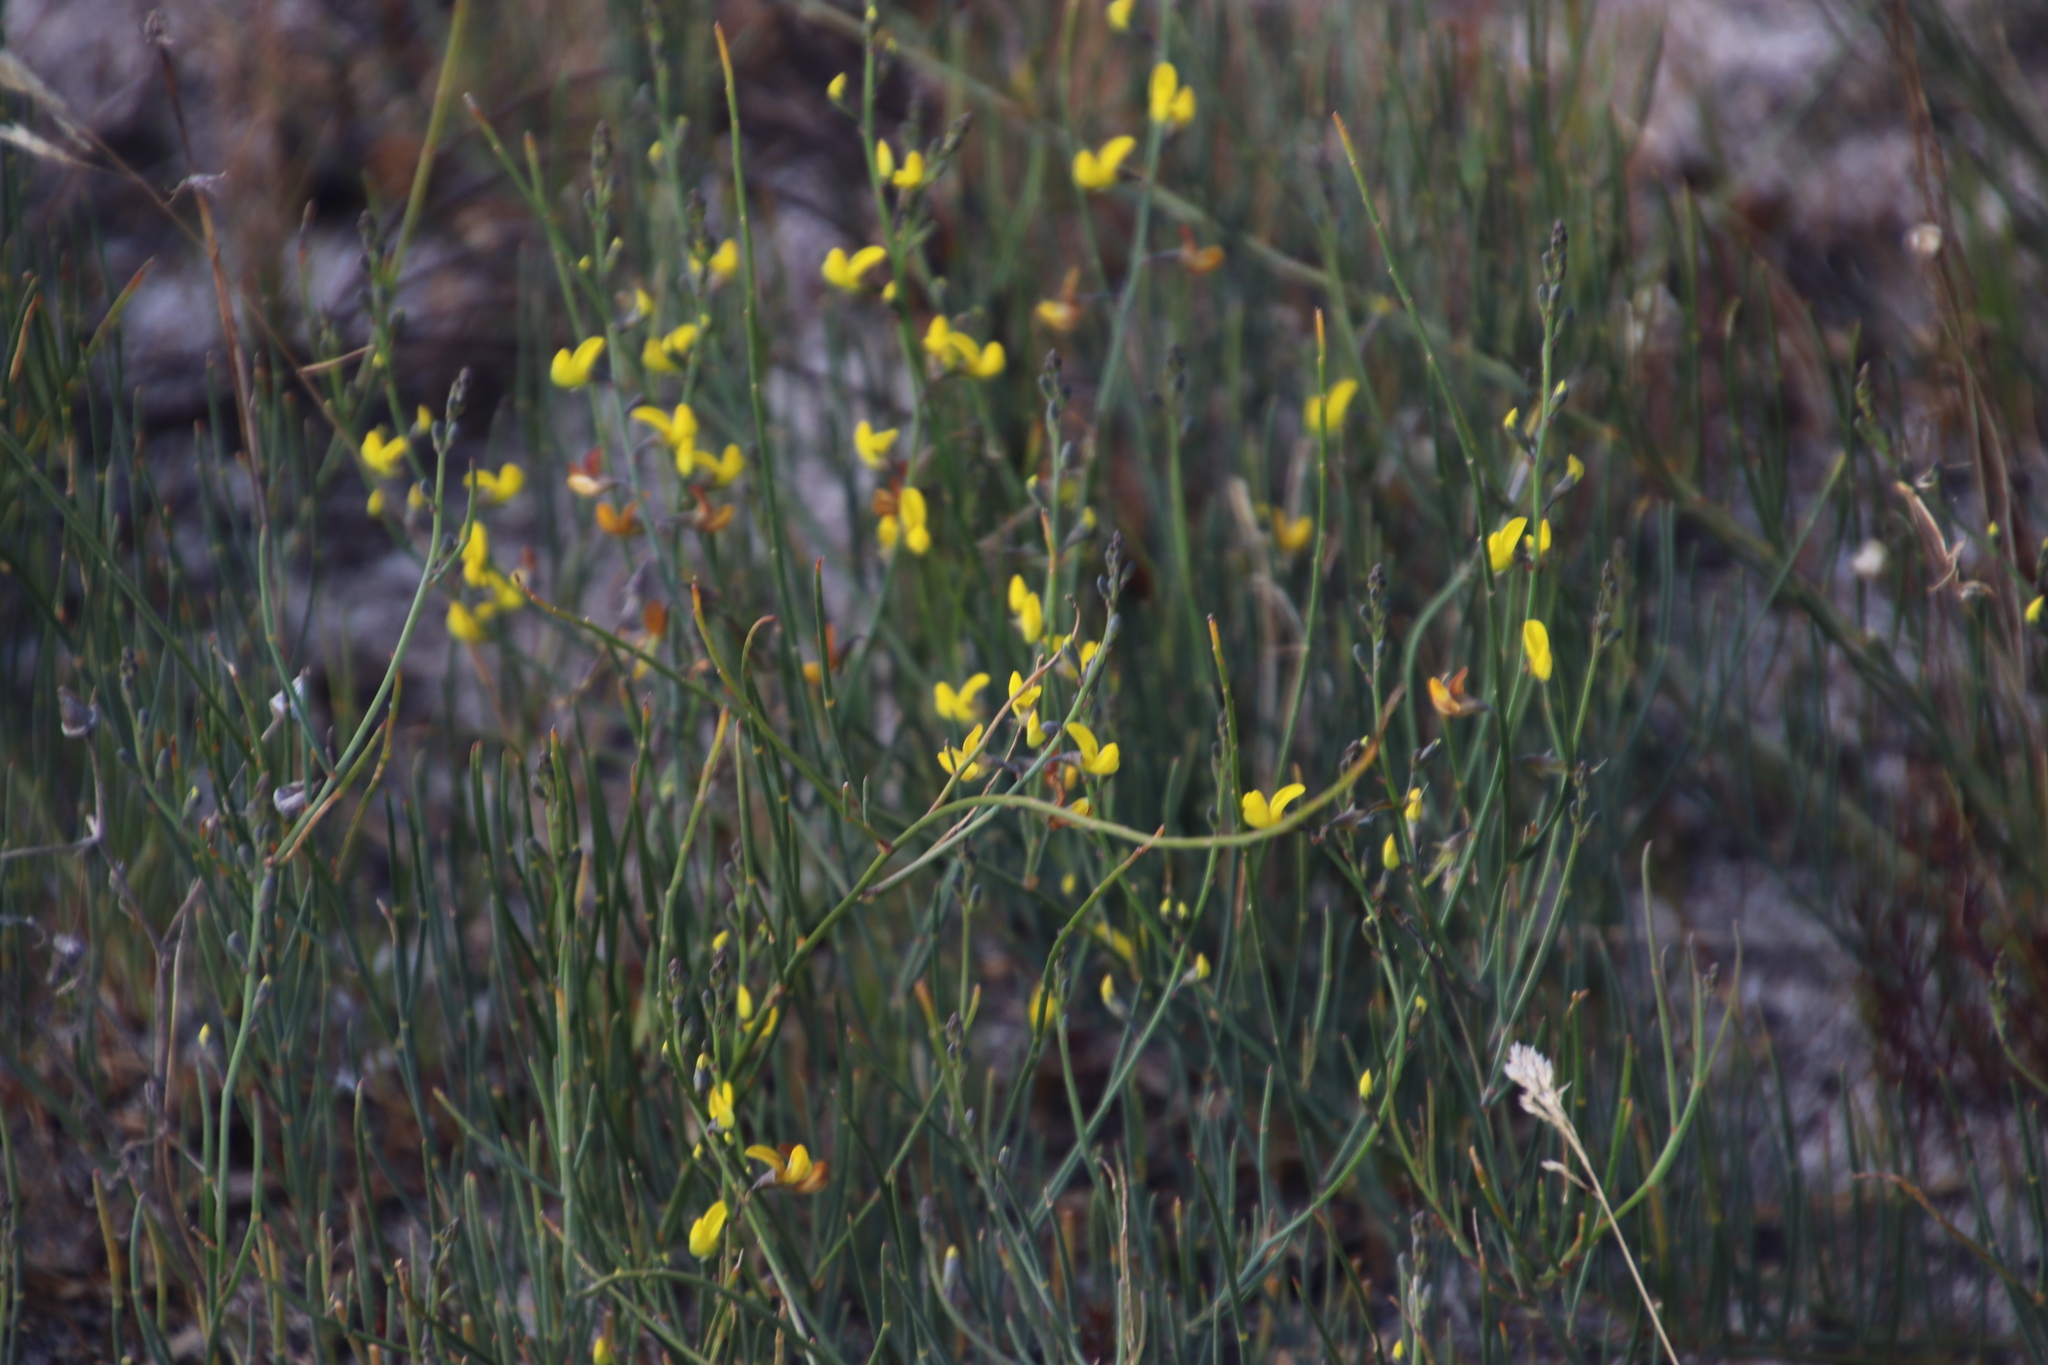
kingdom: Plantae
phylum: Tracheophyta
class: Magnoliopsida
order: Fabales
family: Fabaceae
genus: Lebeckia
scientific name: Lebeckia contaminata
